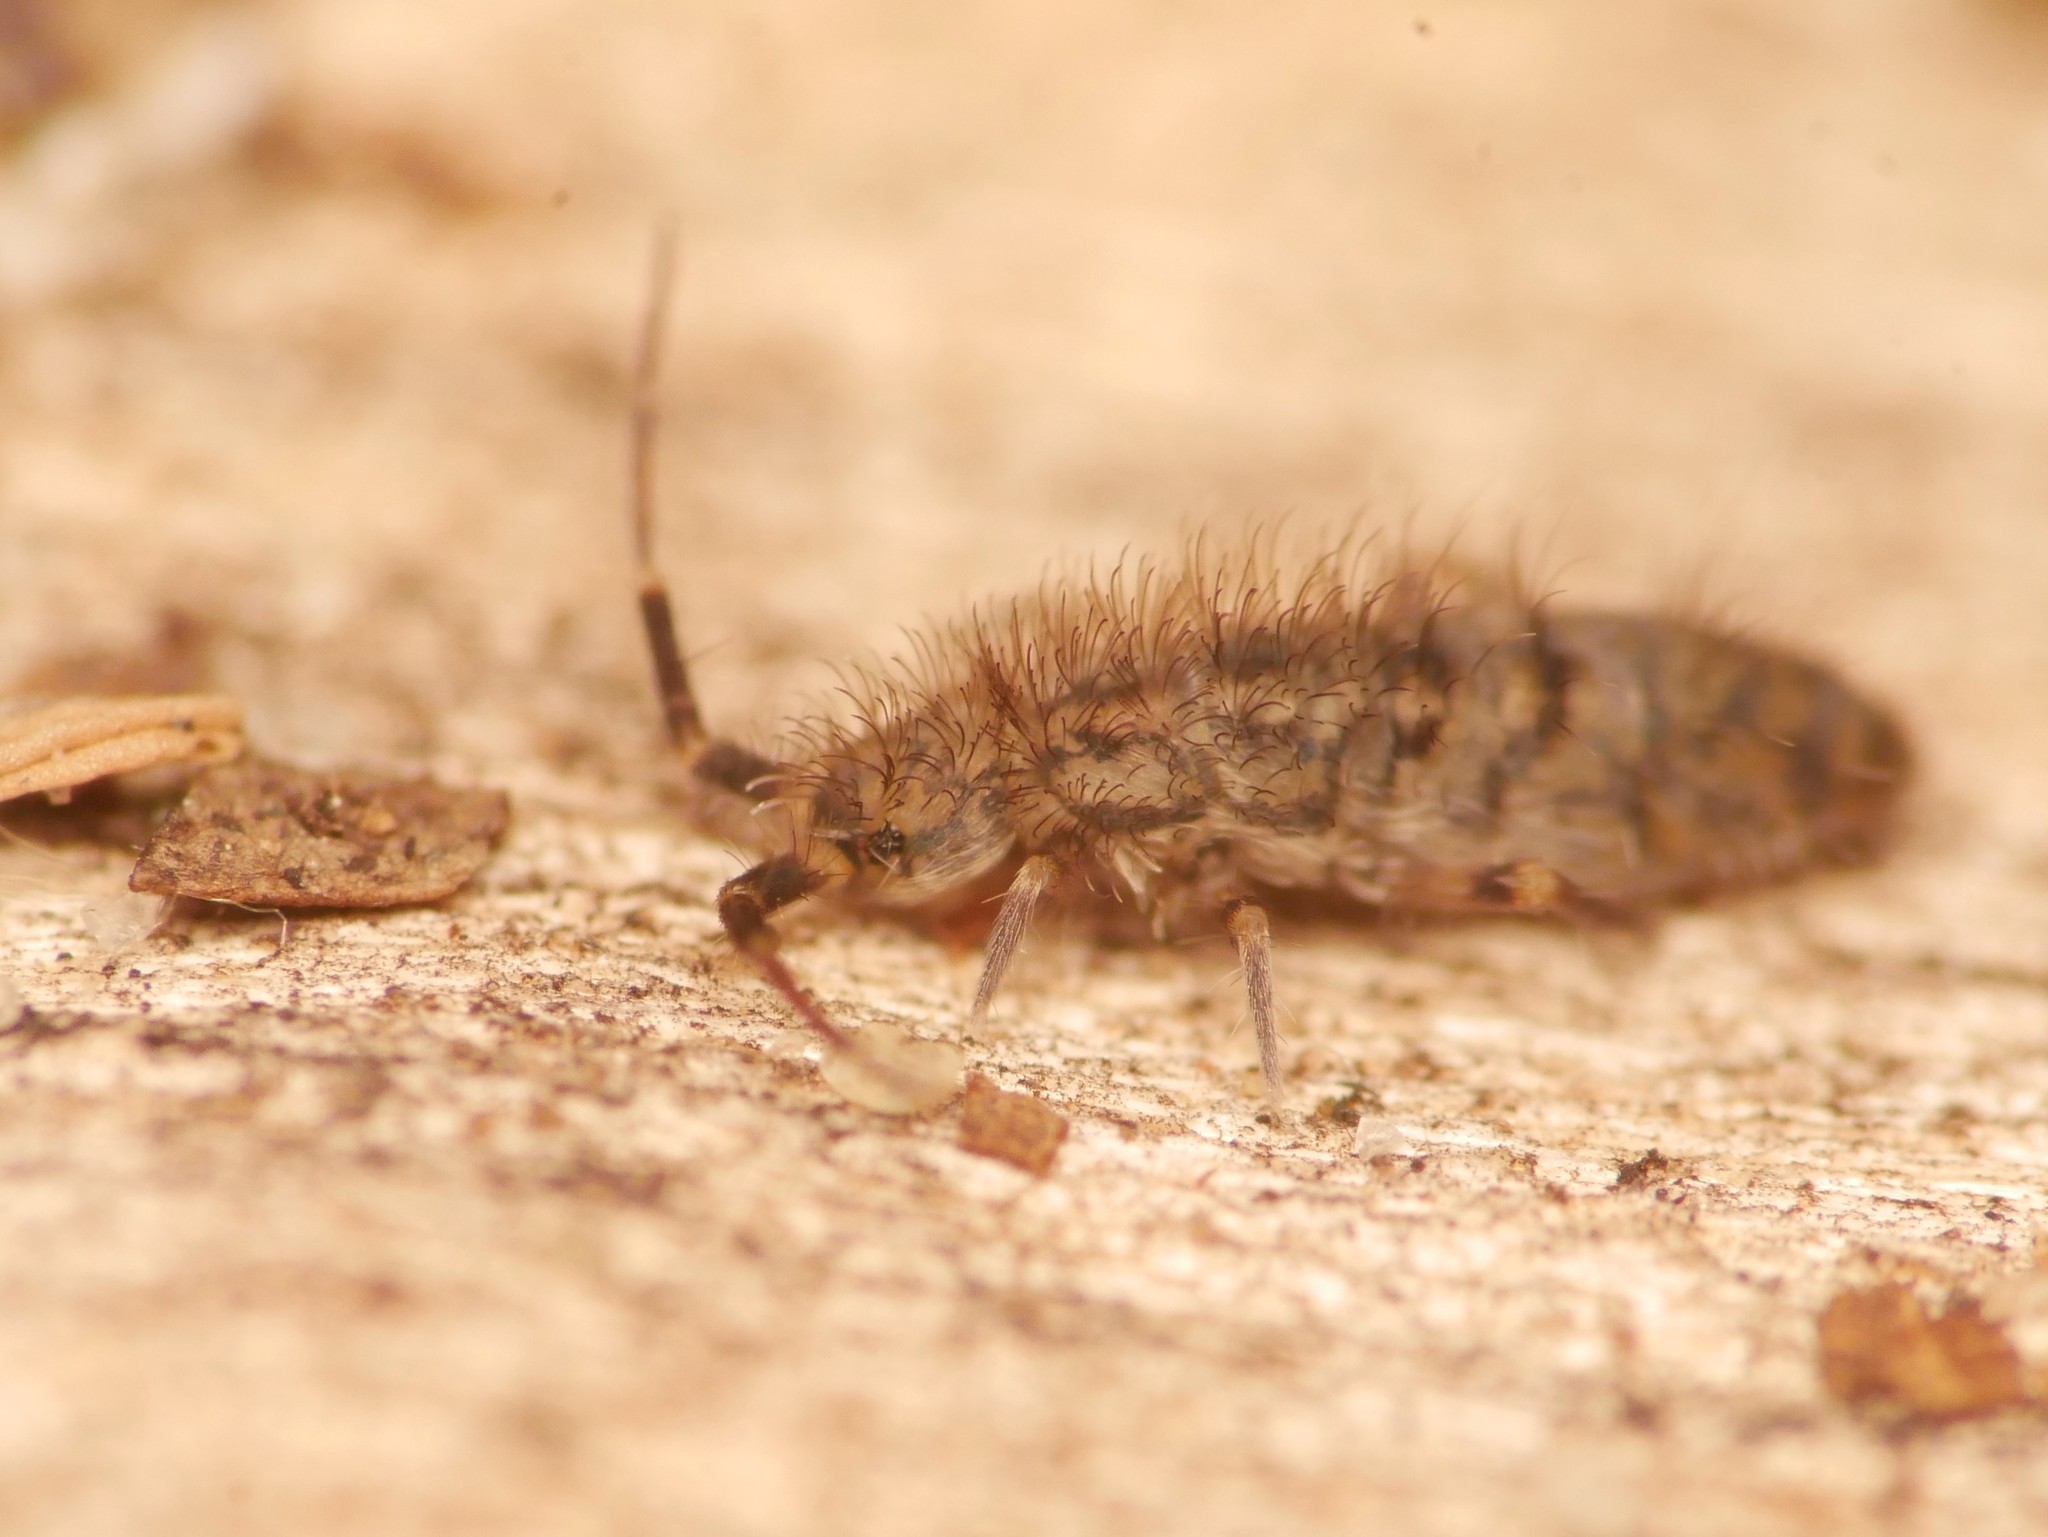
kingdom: Animalia
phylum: Arthropoda
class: Collembola
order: Entomobryomorpha
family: Orchesellidae
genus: Orchesella
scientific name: Orchesella villosa
